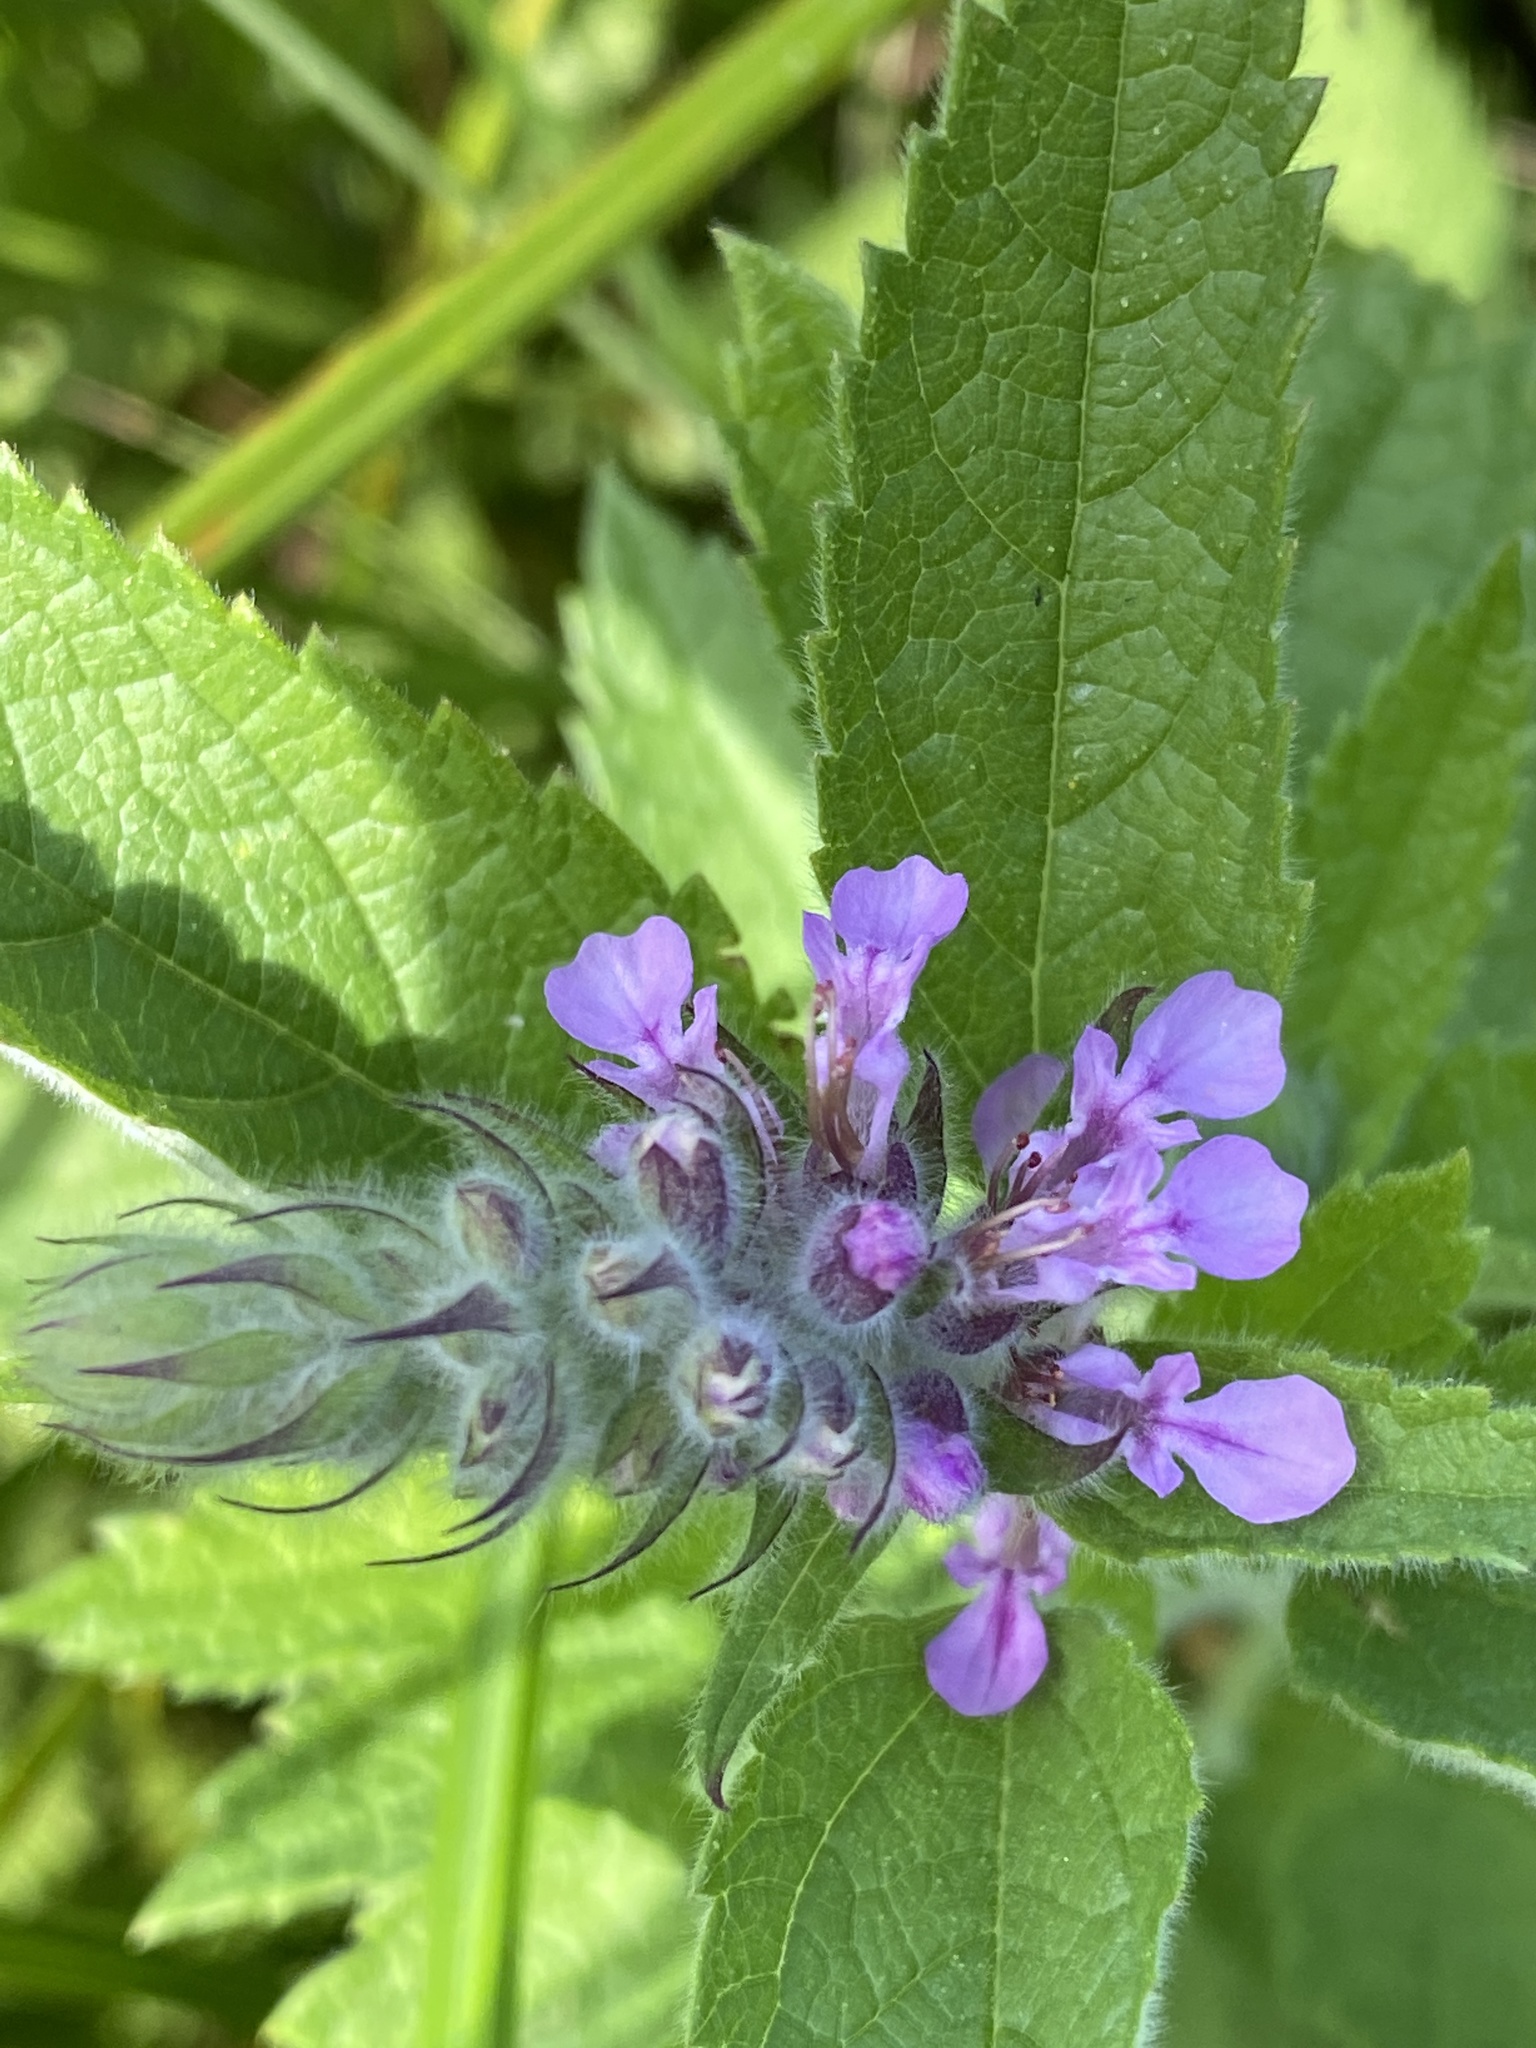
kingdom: Plantae
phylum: Tracheophyta
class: Magnoliopsida
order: Lamiales
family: Lamiaceae
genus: Teucrium
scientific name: Teucrium canadense
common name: American germander
